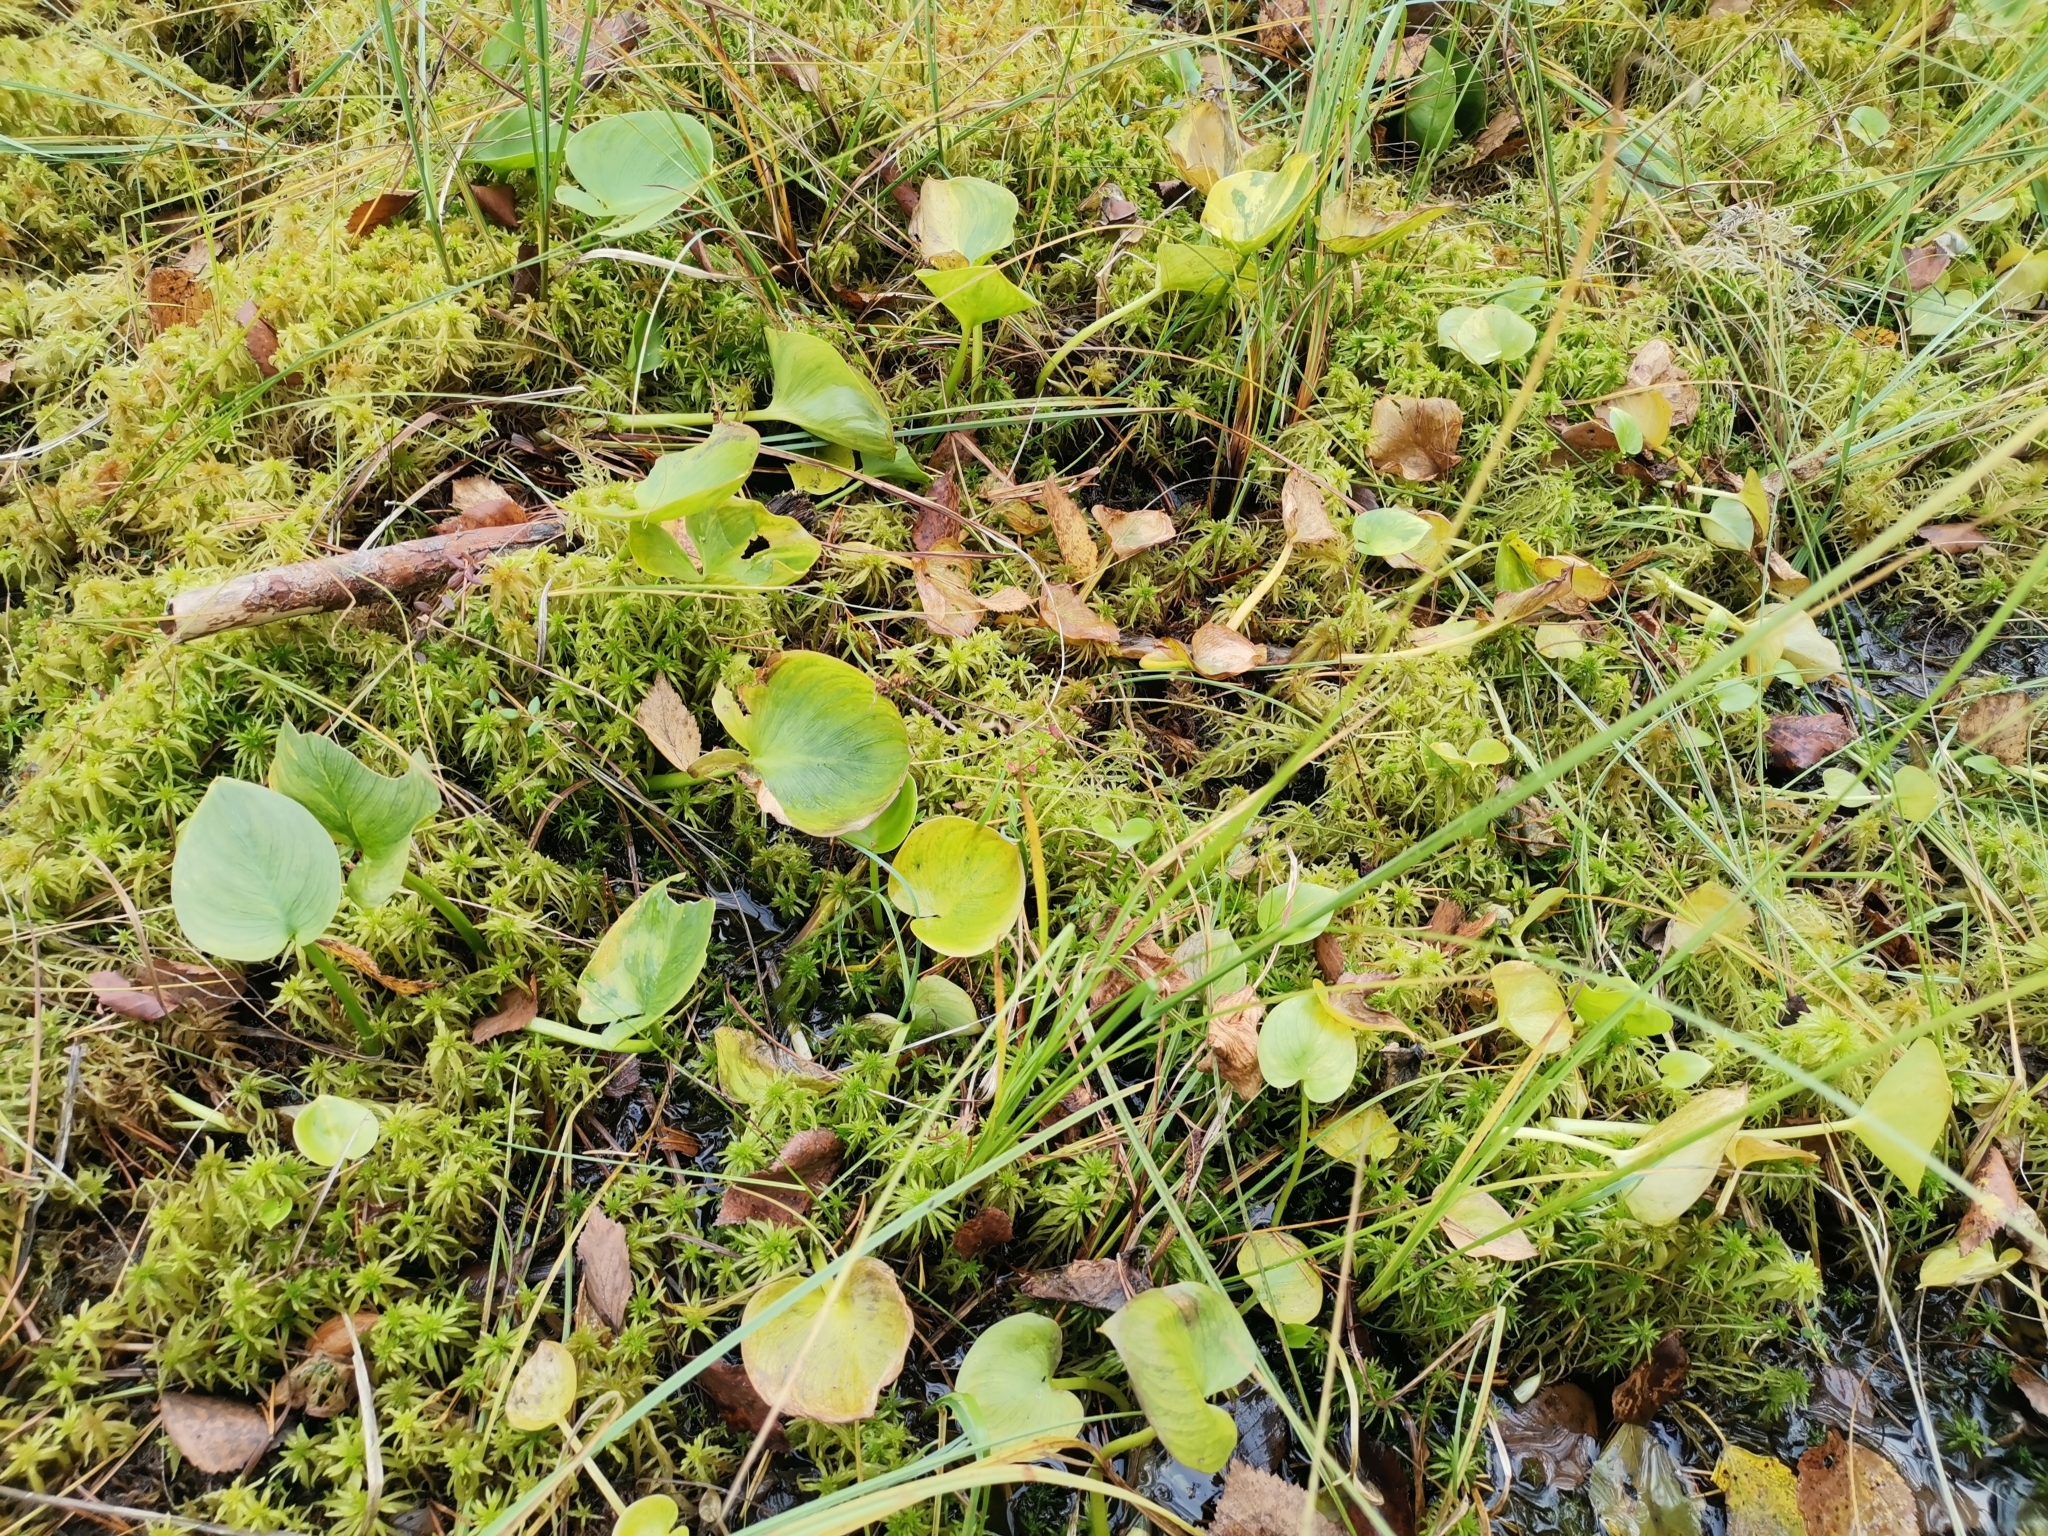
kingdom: Plantae
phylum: Tracheophyta
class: Liliopsida
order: Alismatales
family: Araceae
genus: Calla
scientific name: Calla palustris
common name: Bog arum
